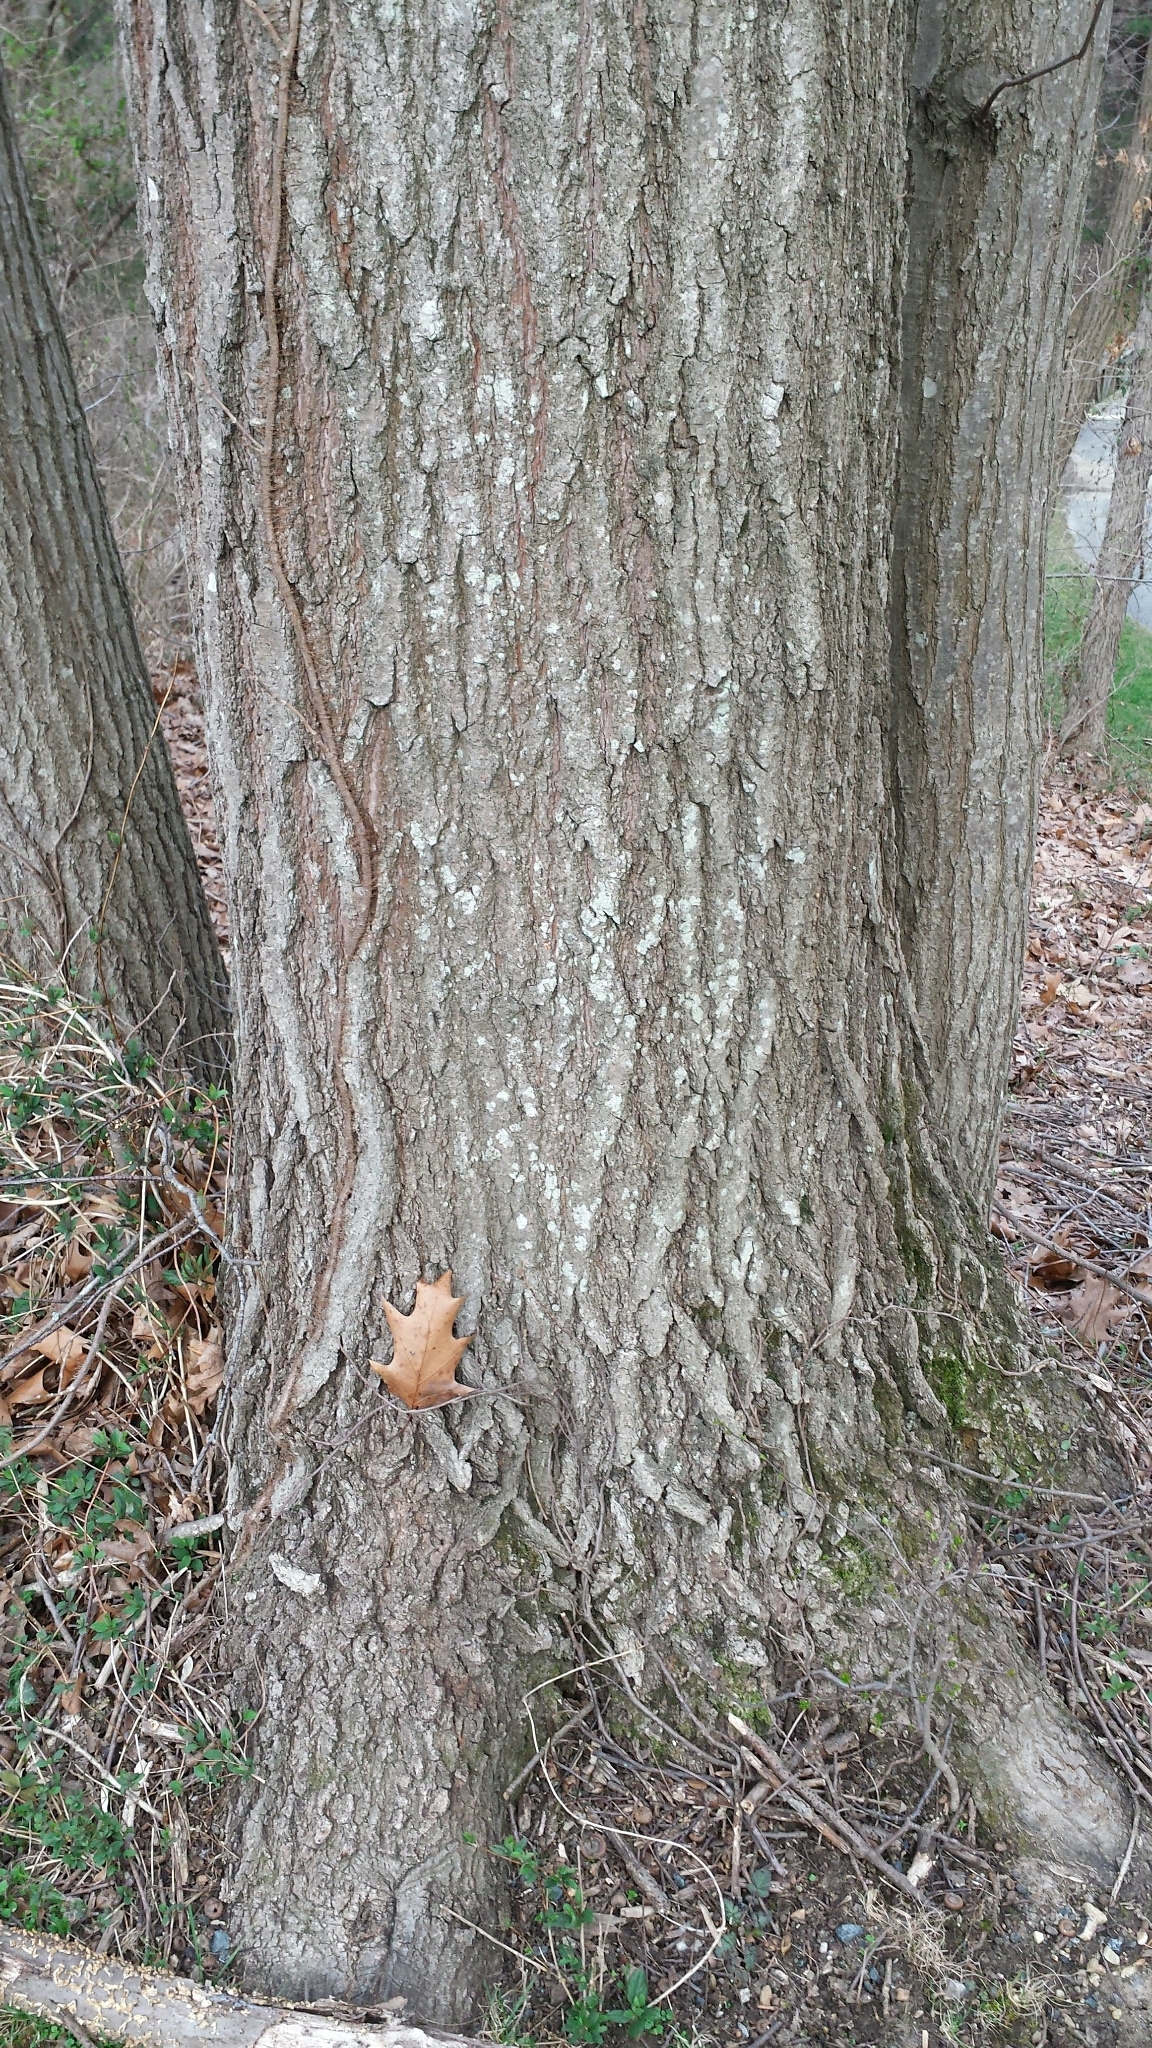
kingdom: Plantae
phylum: Tracheophyta
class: Magnoliopsida
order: Fagales
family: Fagaceae
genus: Quercus
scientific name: Quercus rubra
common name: Red oak
